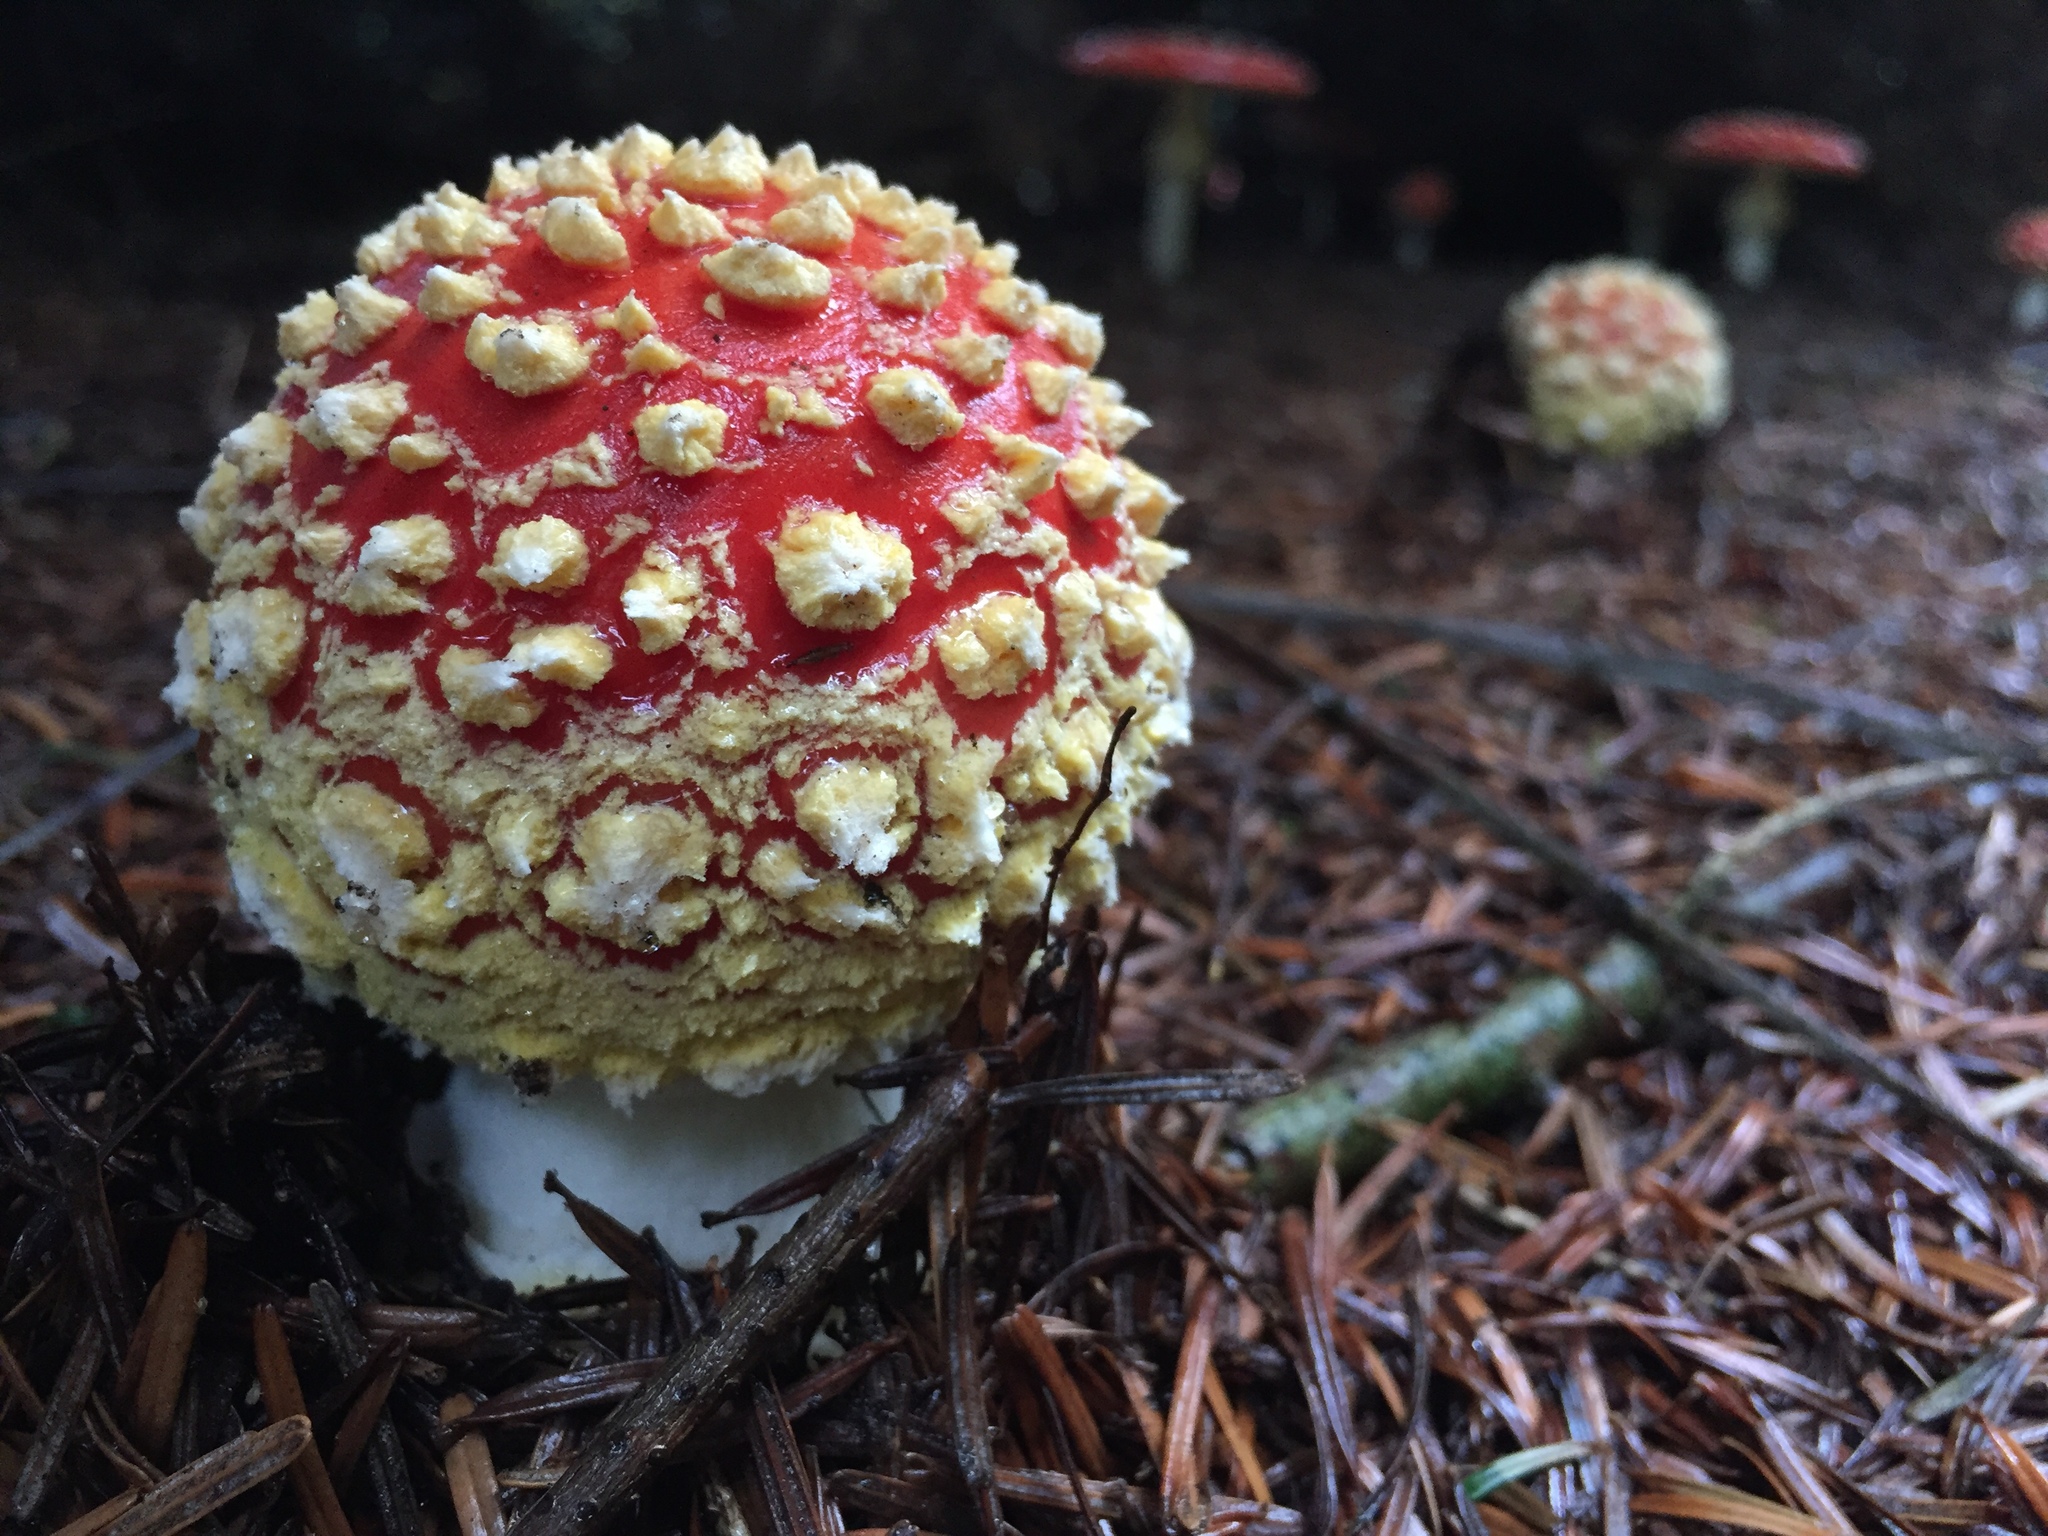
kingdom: Fungi
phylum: Basidiomycota
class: Agaricomycetes
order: Agaricales
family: Amanitaceae
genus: Amanita
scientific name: Amanita muscaria
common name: Fly agaric
